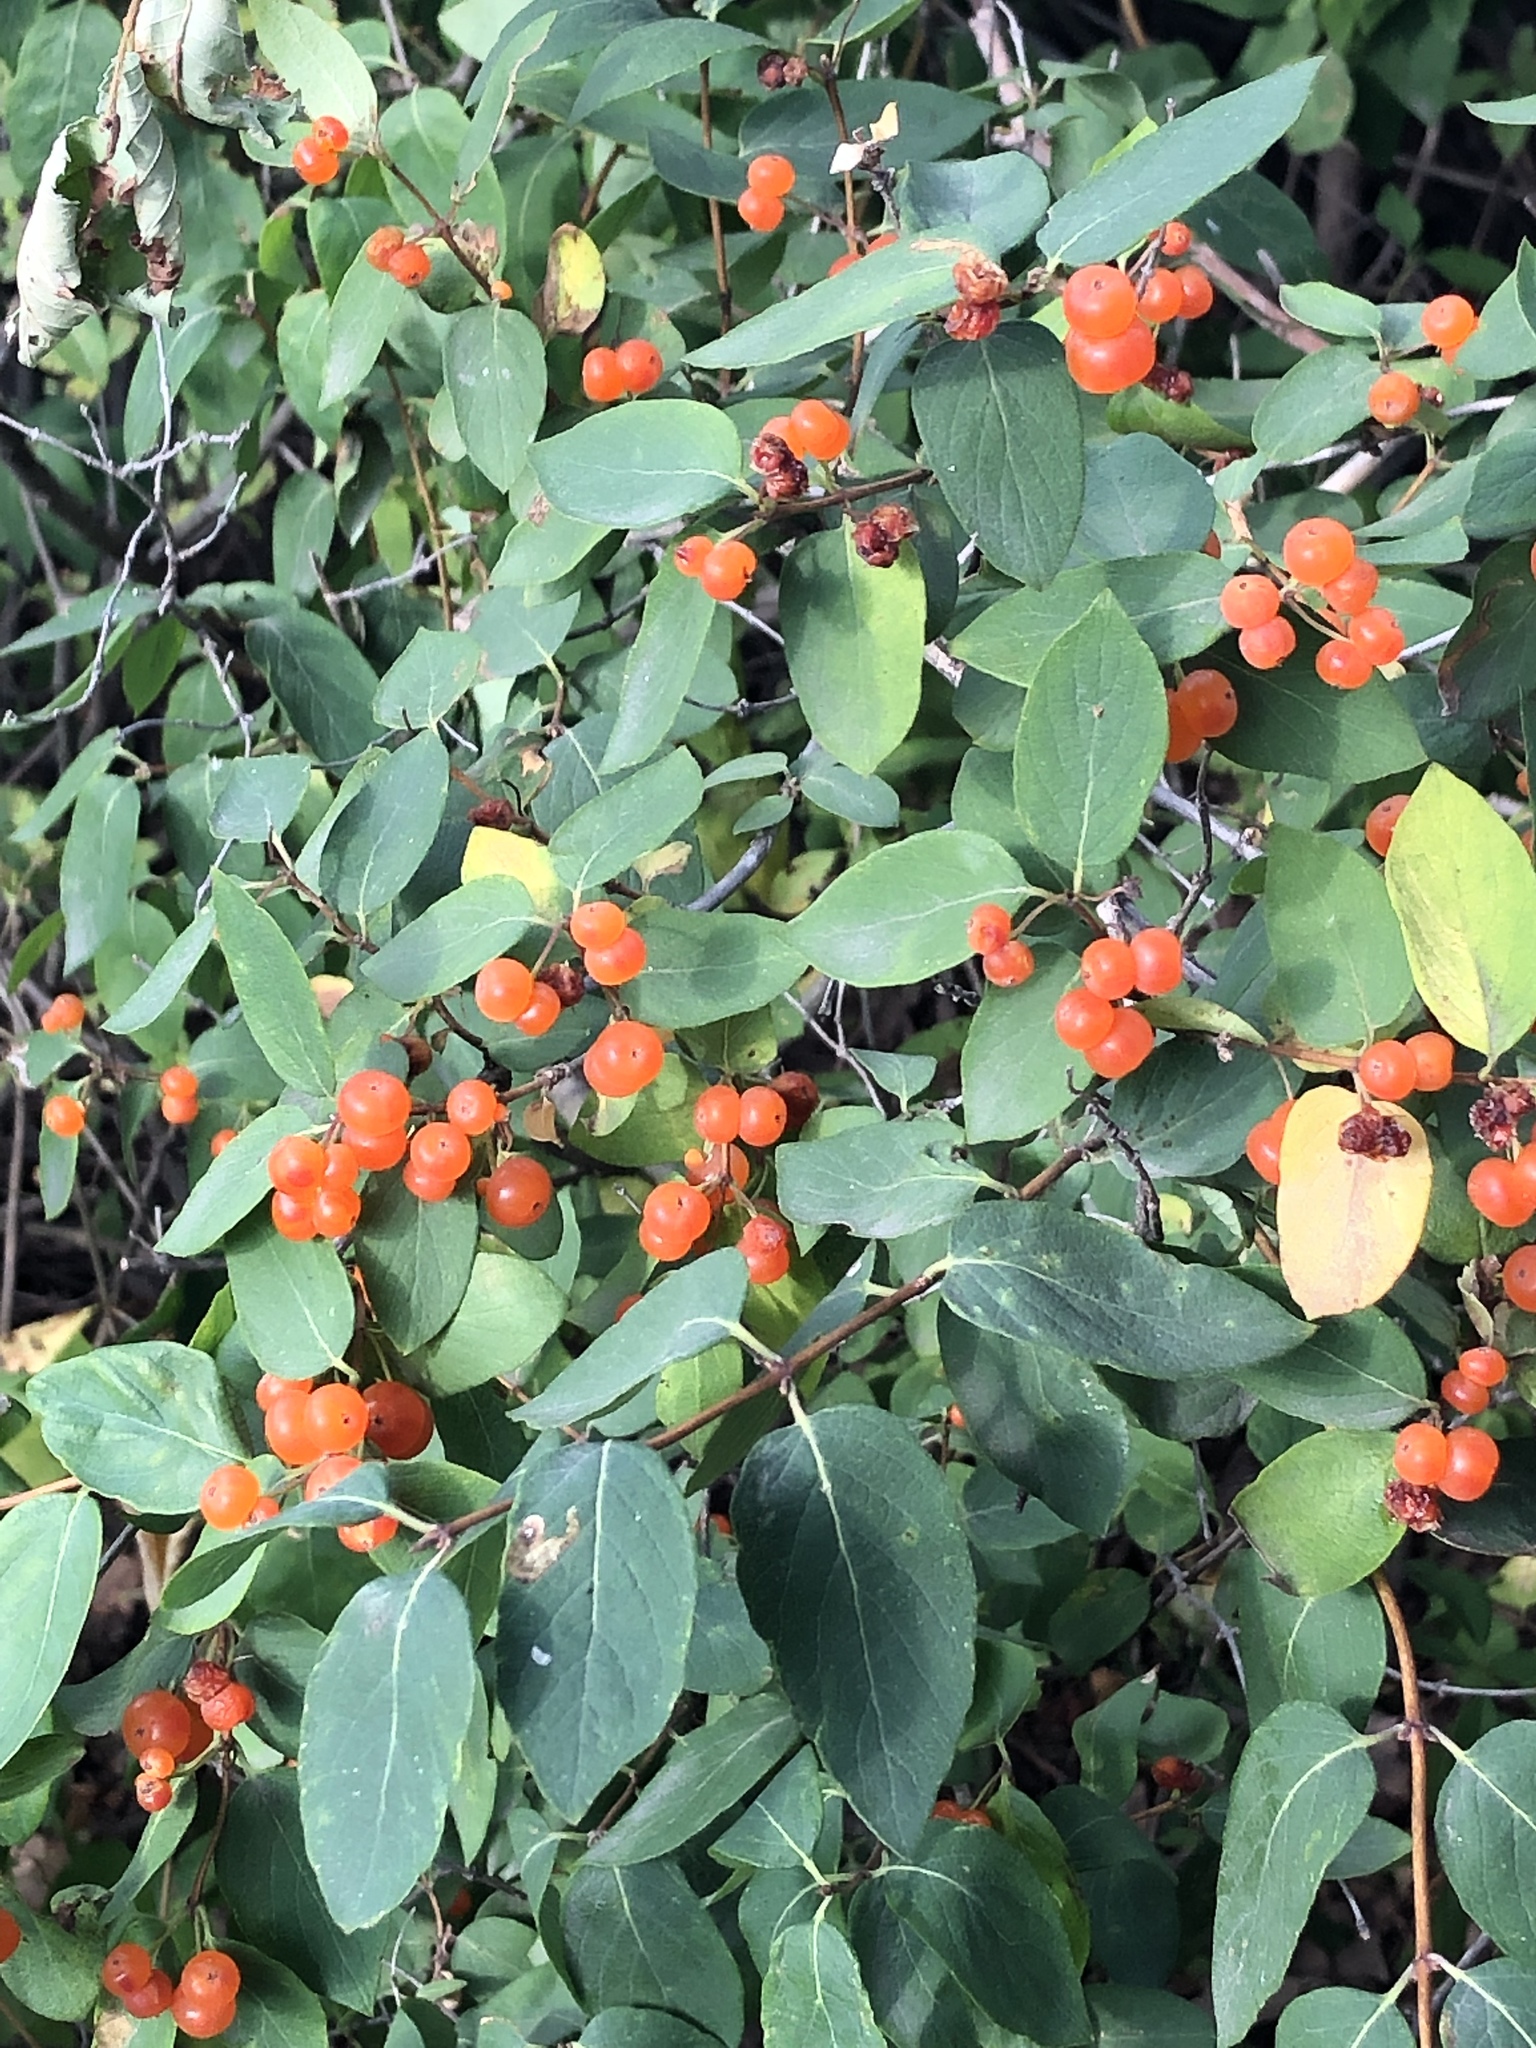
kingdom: Plantae
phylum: Tracheophyta
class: Magnoliopsida
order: Dipsacales
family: Caprifoliaceae
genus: Lonicera
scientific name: Lonicera bella
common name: Bell's honeysuckle
